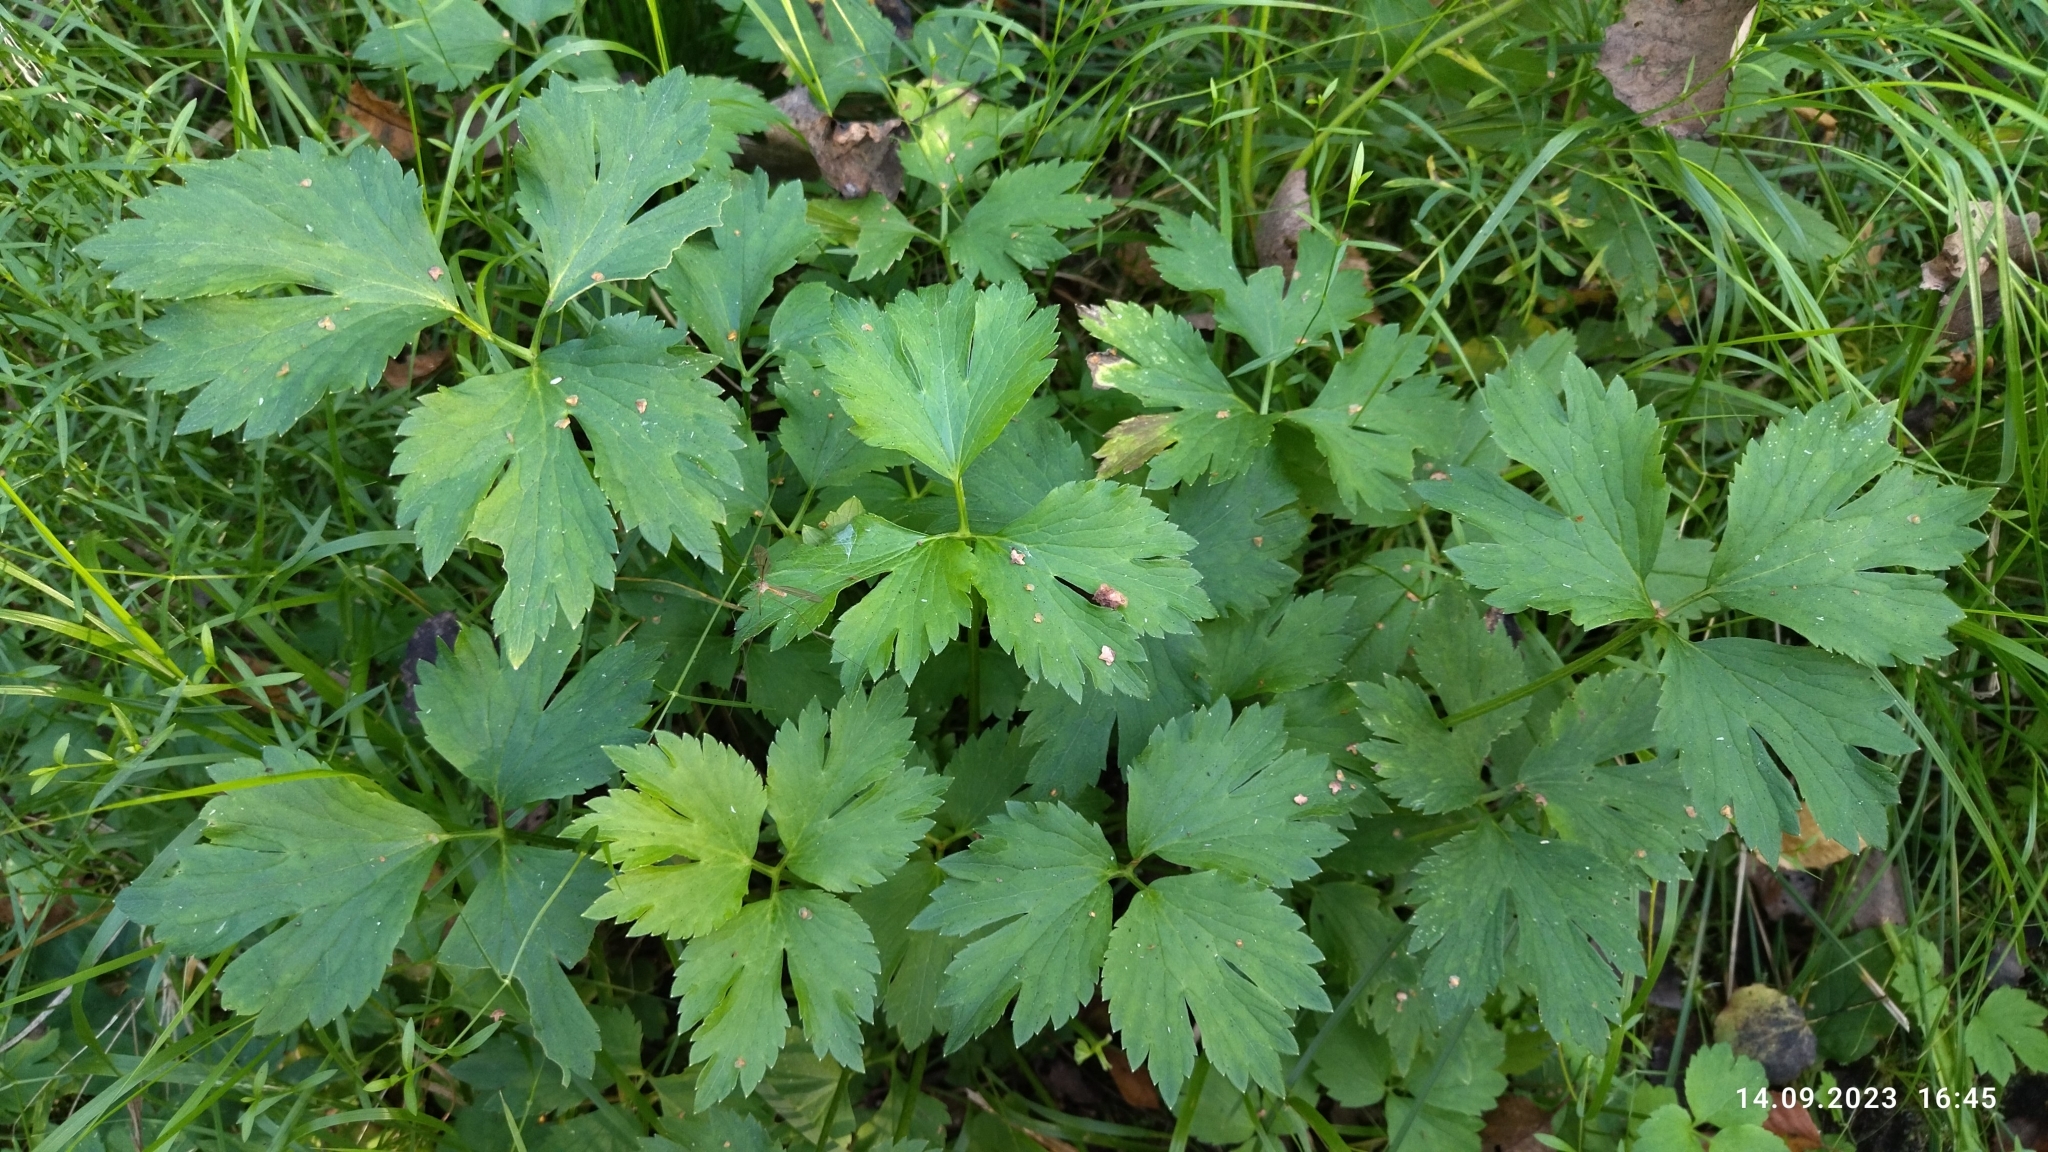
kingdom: Plantae
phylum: Tracheophyta
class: Magnoliopsida
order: Ranunculales
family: Ranunculaceae
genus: Ranunculus
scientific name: Ranunculus repens
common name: Creeping buttercup
